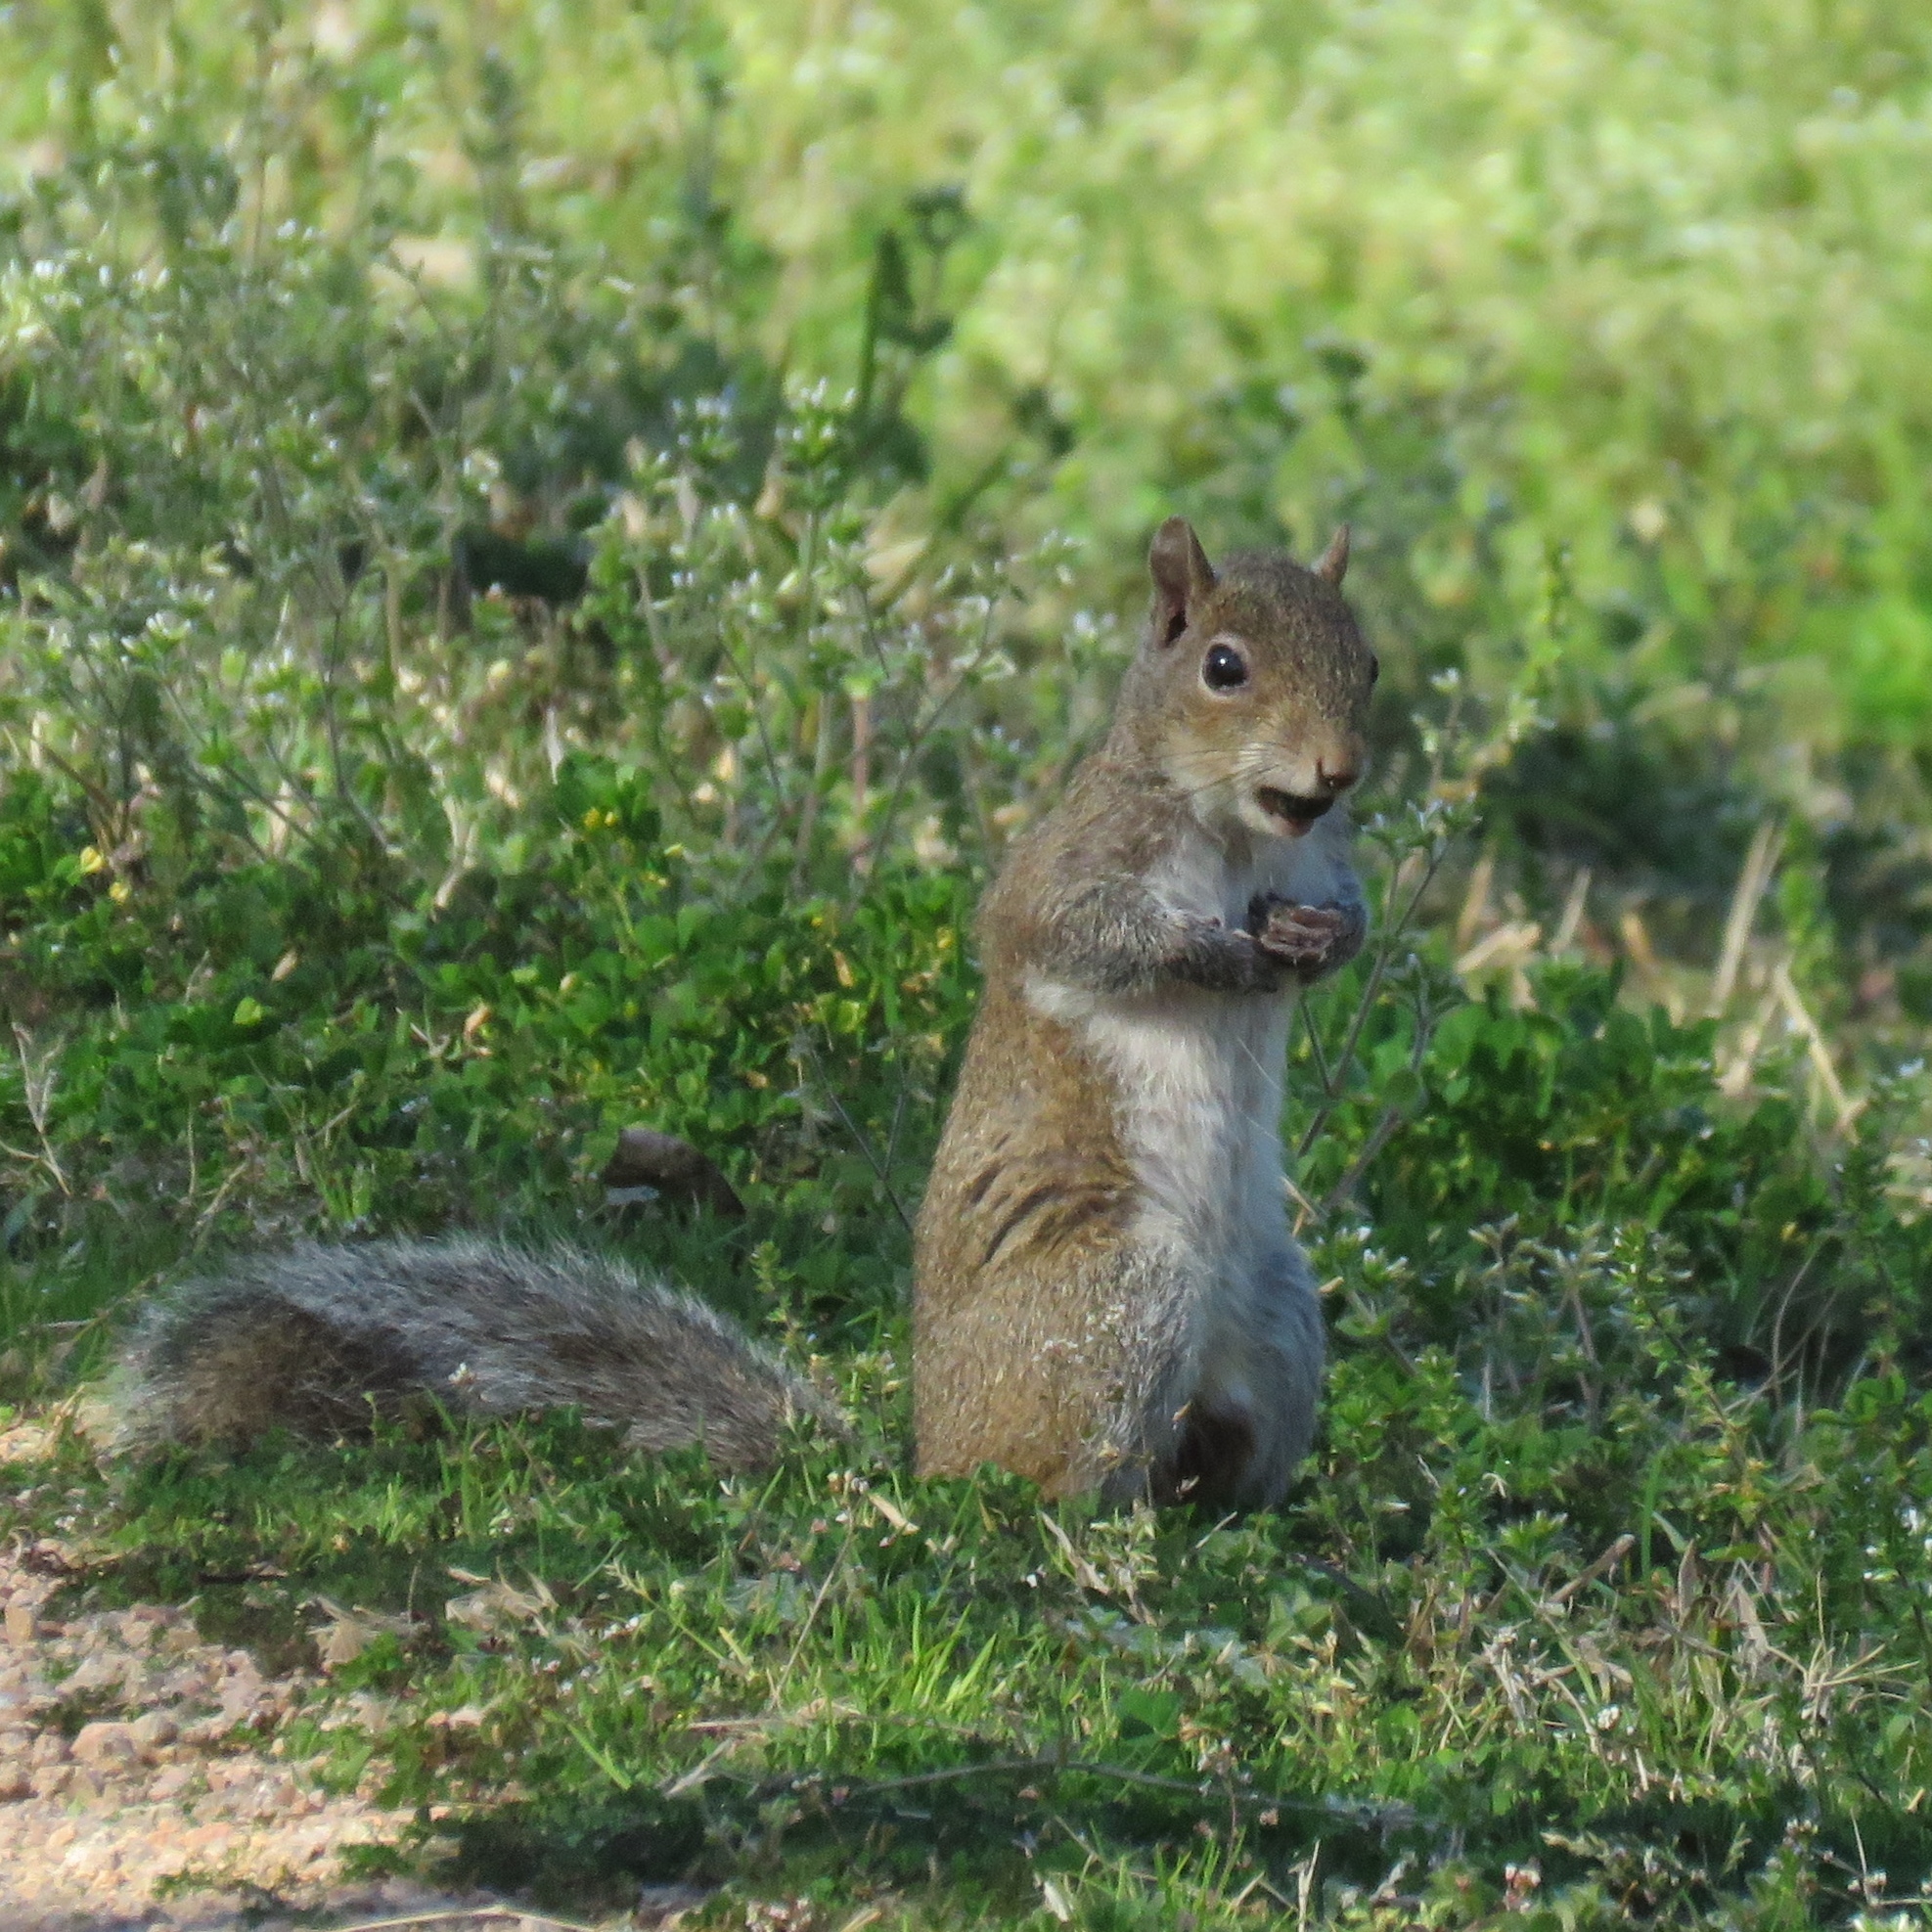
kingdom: Animalia
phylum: Chordata
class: Mammalia
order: Rodentia
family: Sciuridae
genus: Sciurus
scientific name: Sciurus carolinensis
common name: Eastern gray squirrel
